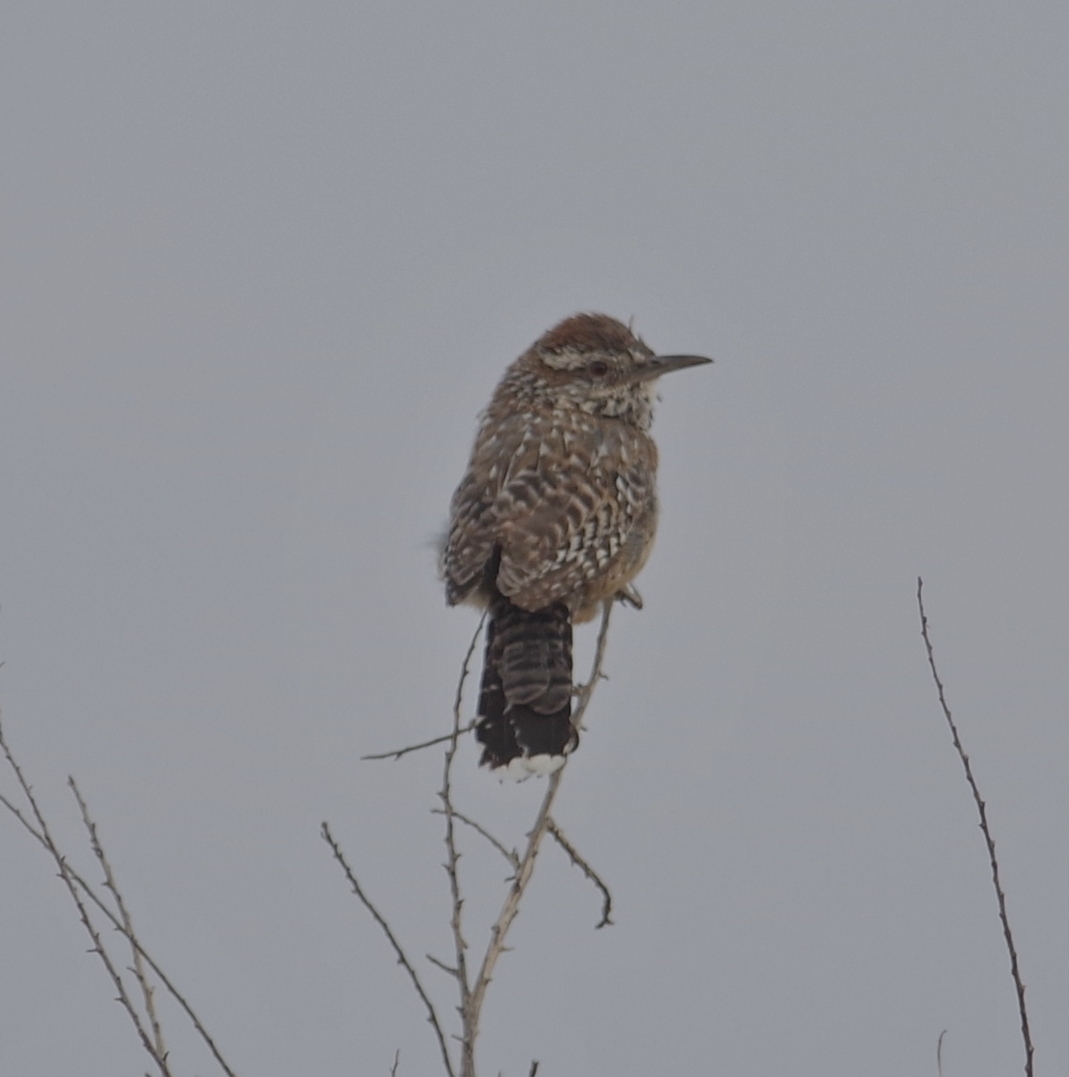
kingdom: Animalia
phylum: Chordata
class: Aves
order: Passeriformes
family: Troglodytidae
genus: Campylorhynchus
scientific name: Campylorhynchus brunneicapillus
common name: Cactus wren
